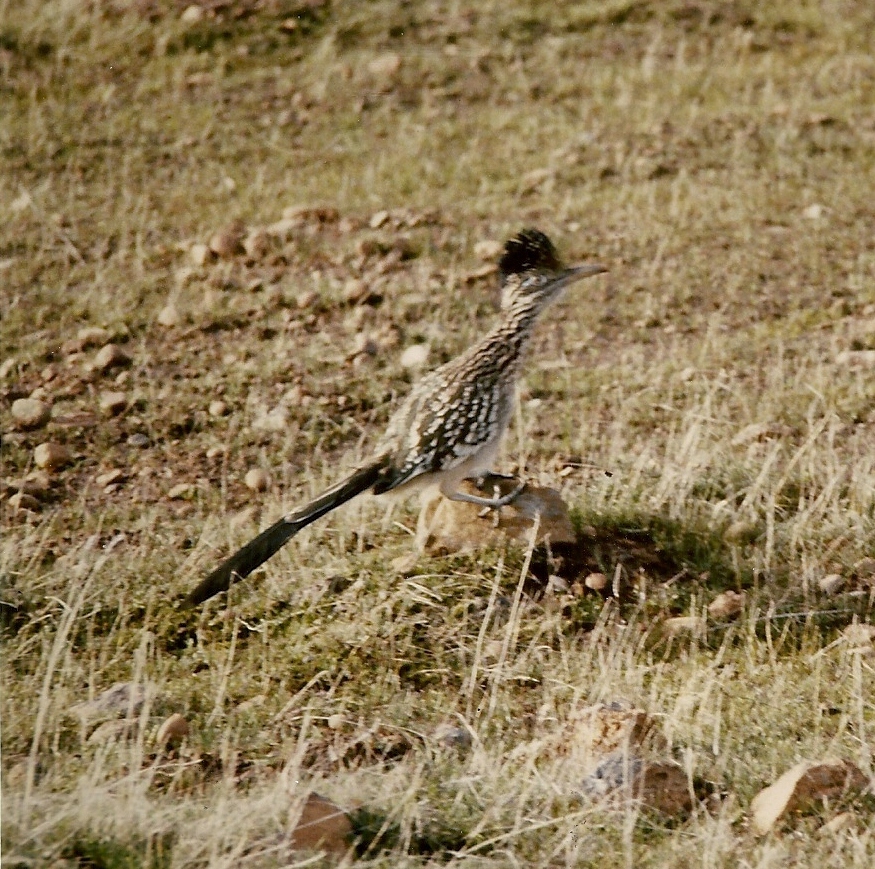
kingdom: Animalia
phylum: Chordata
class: Aves
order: Cuculiformes
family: Cuculidae
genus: Geococcyx
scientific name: Geococcyx californianus
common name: Greater roadrunner
